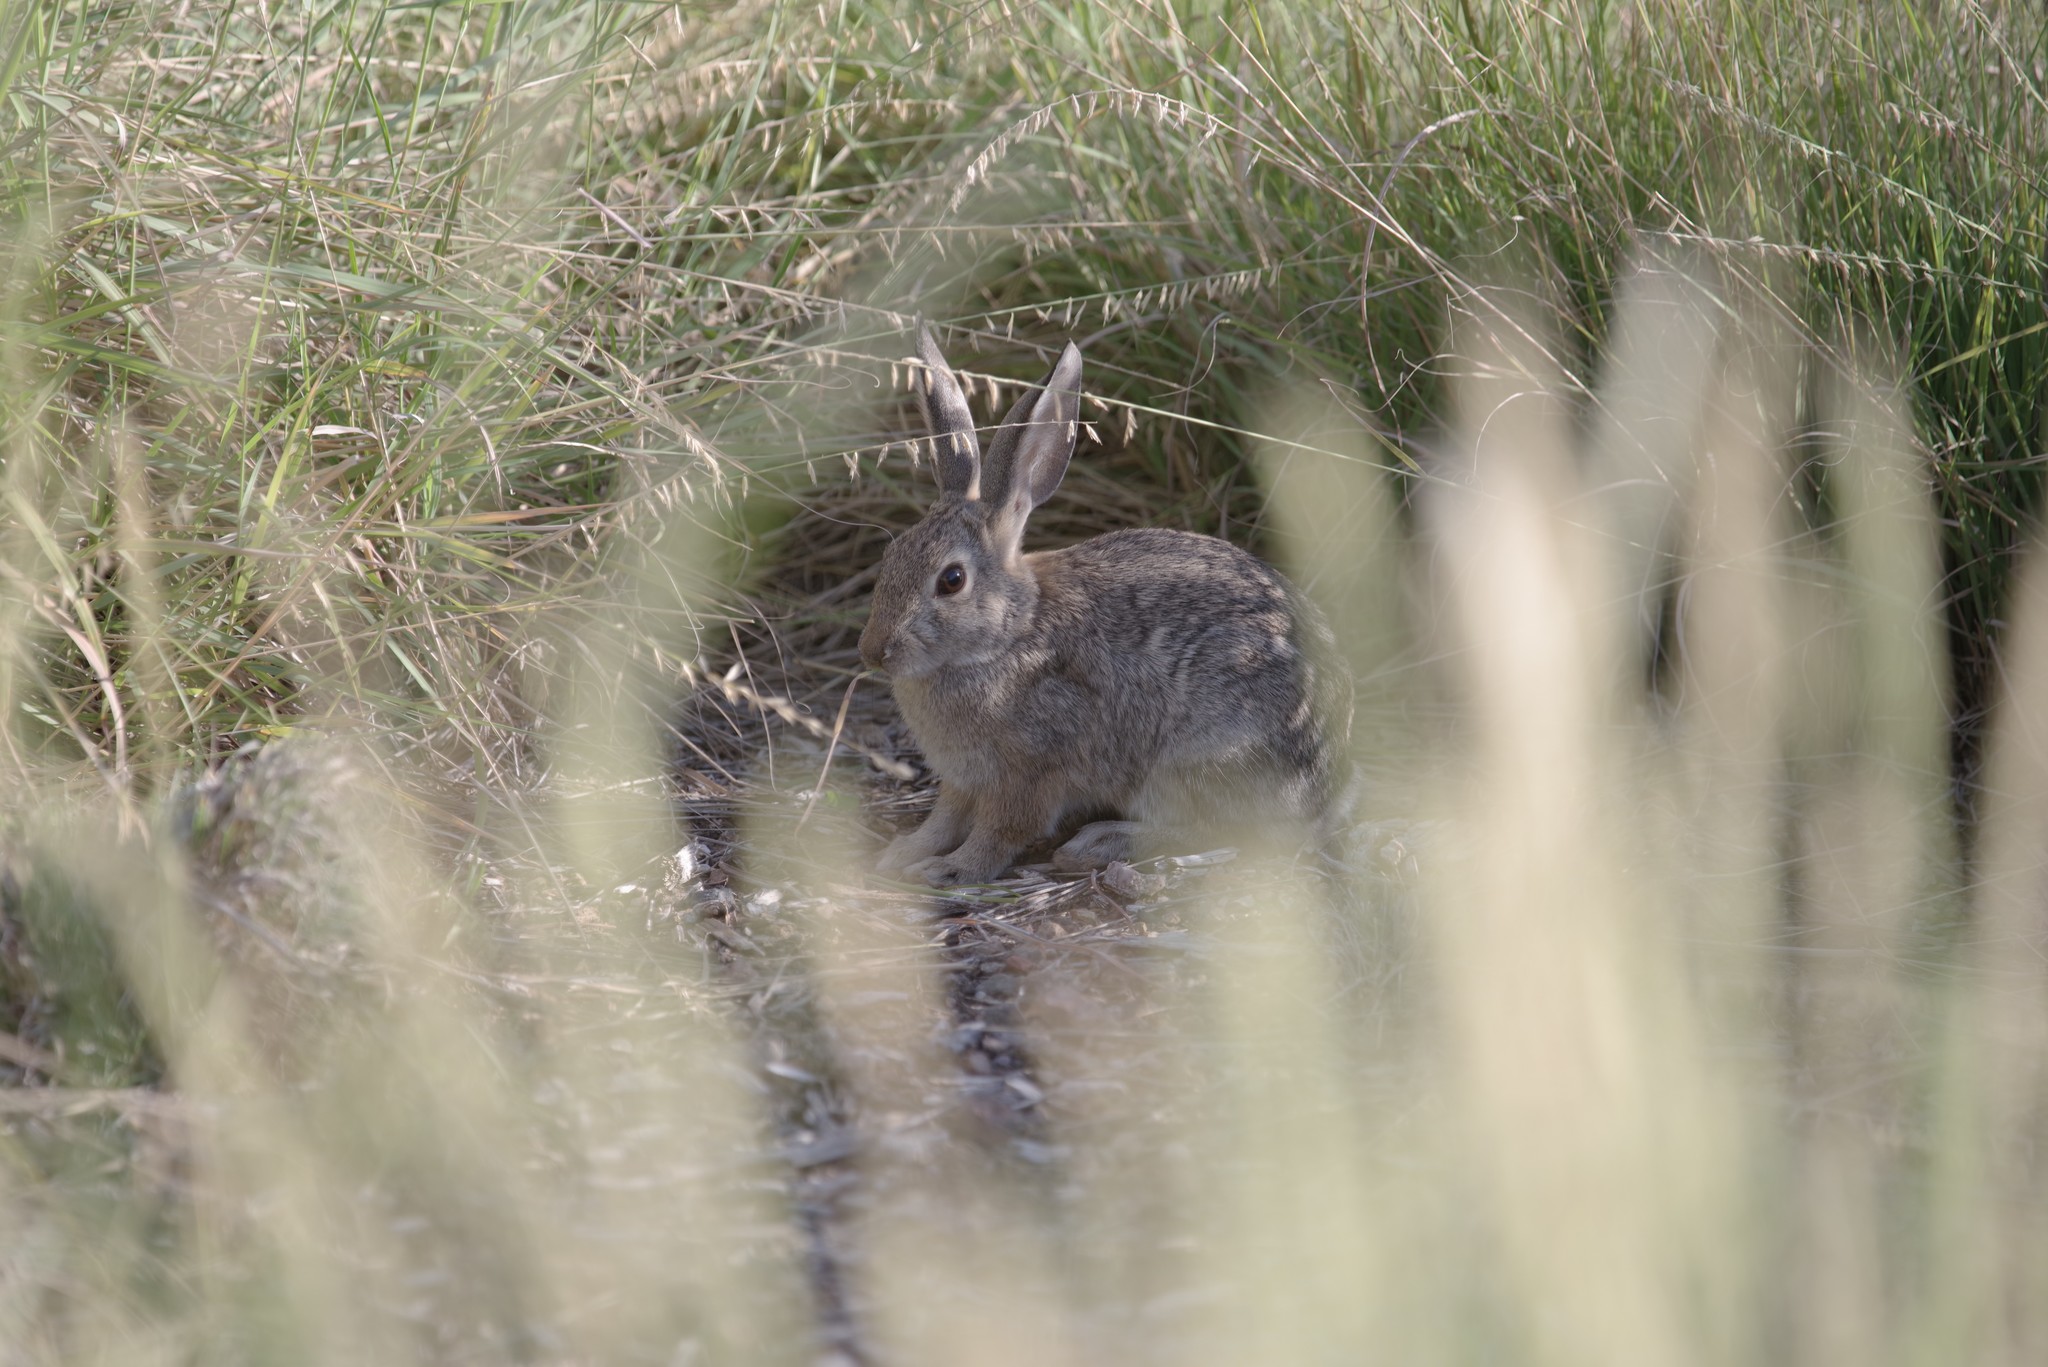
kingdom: Animalia
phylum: Chordata
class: Mammalia
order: Lagomorpha
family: Leporidae
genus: Sylvilagus
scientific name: Sylvilagus audubonii
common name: Desert cottontail
